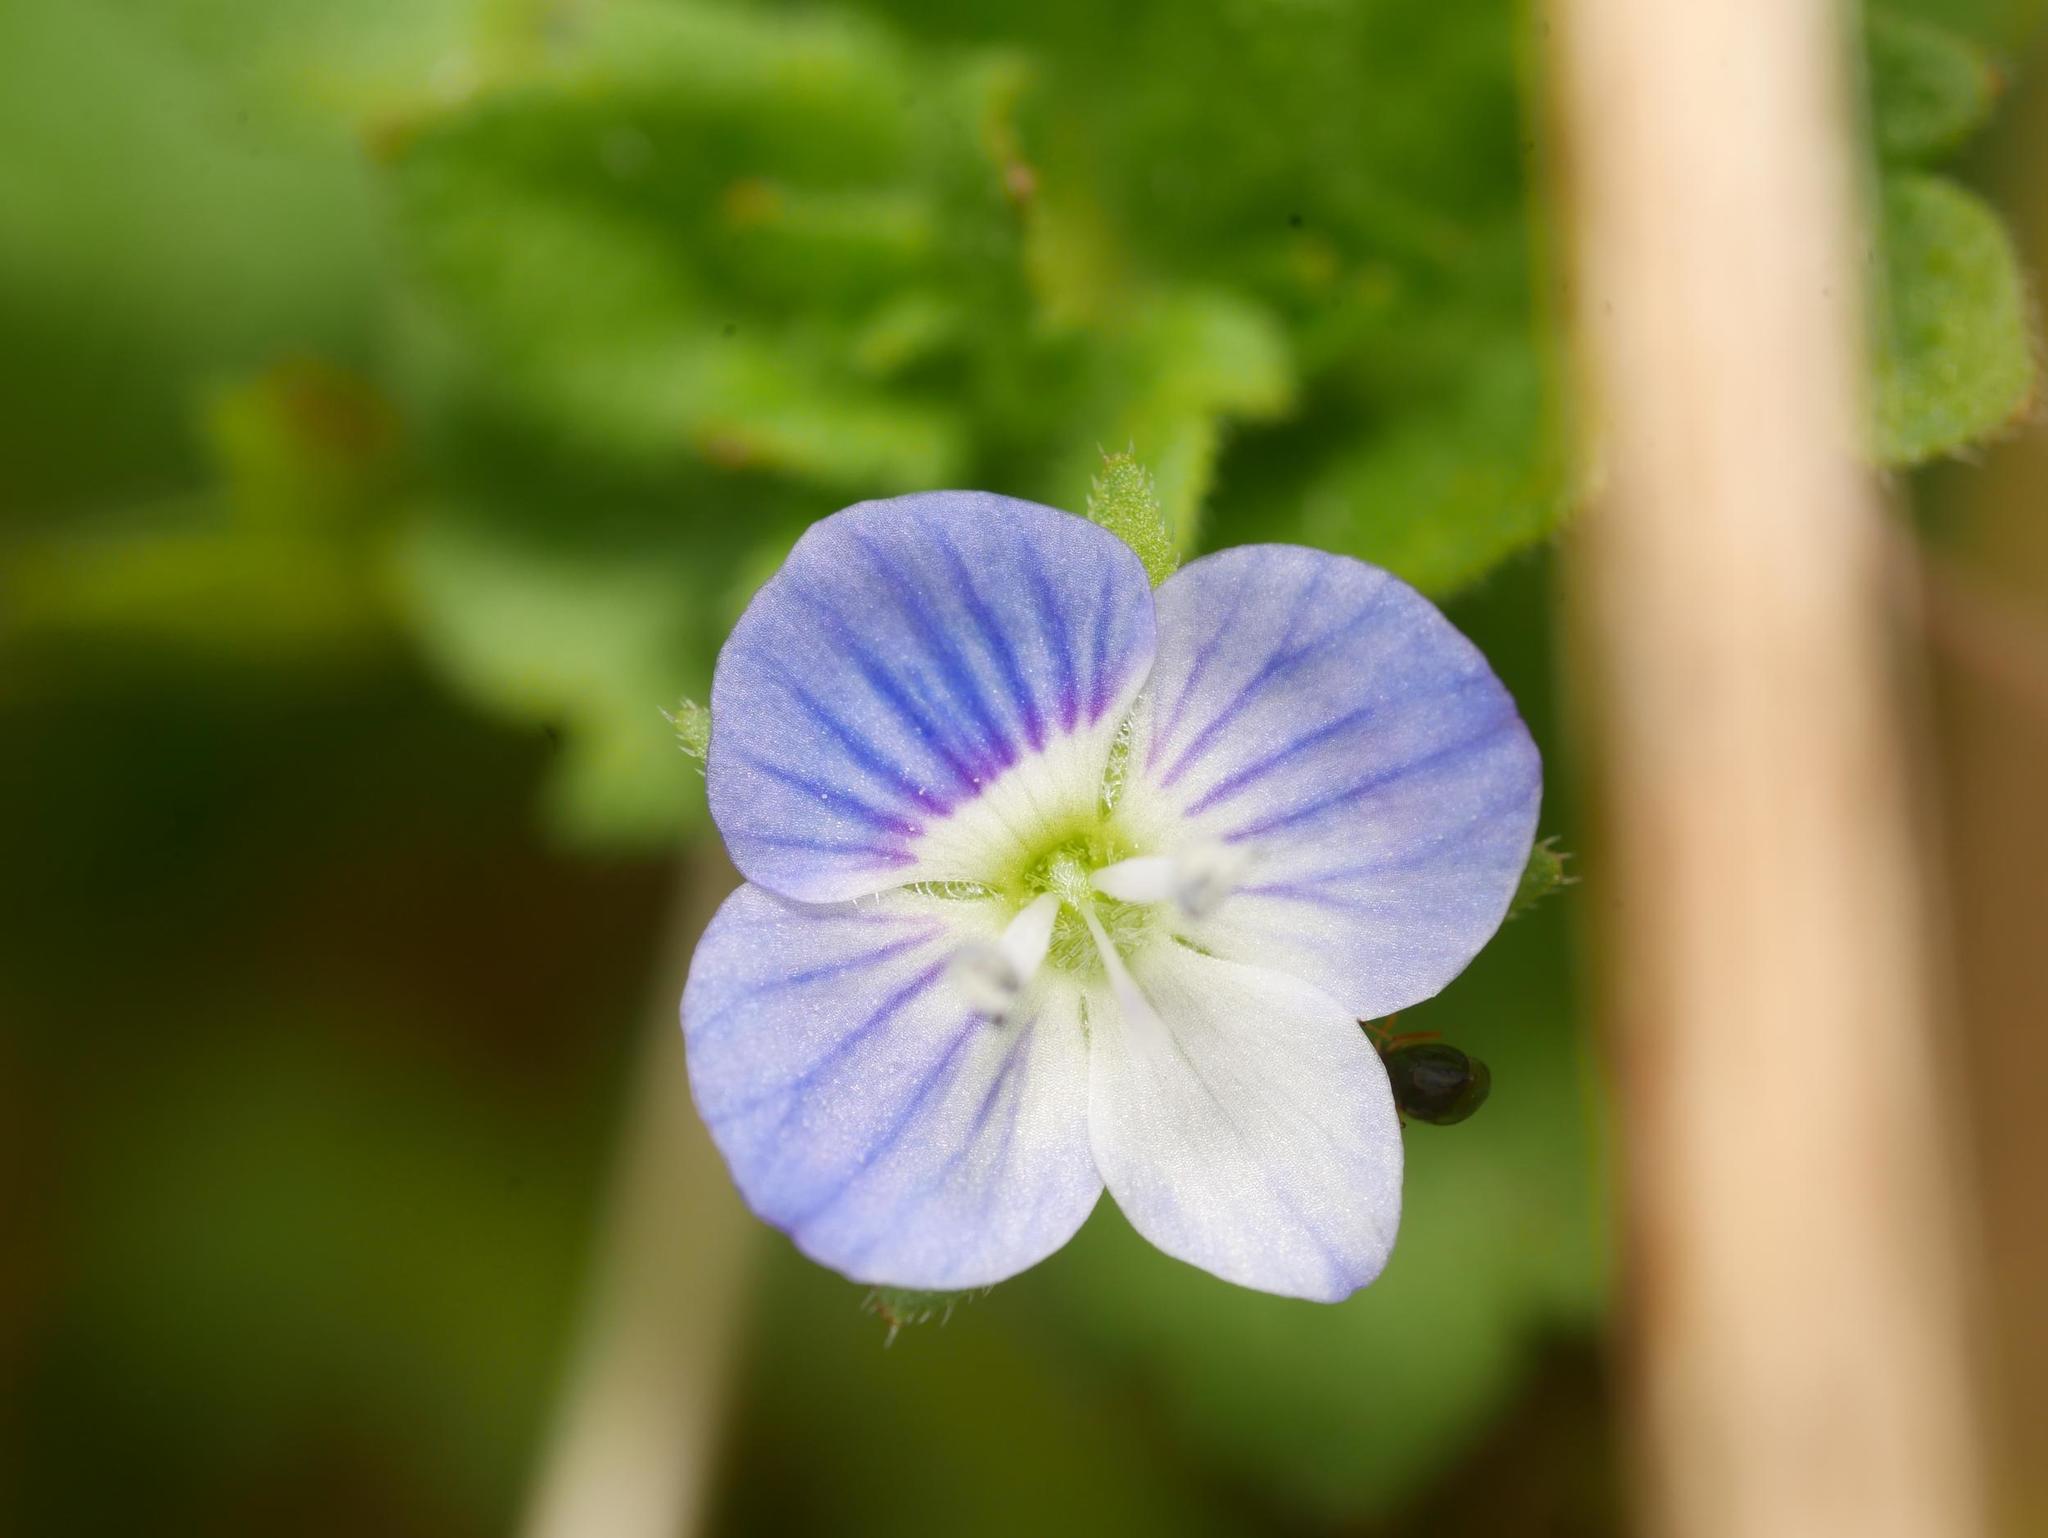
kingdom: Plantae
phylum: Tracheophyta
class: Magnoliopsida
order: Lamiales
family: Plantaginaceae
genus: Veronica
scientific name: Veronica persica
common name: Common field-speedwell
